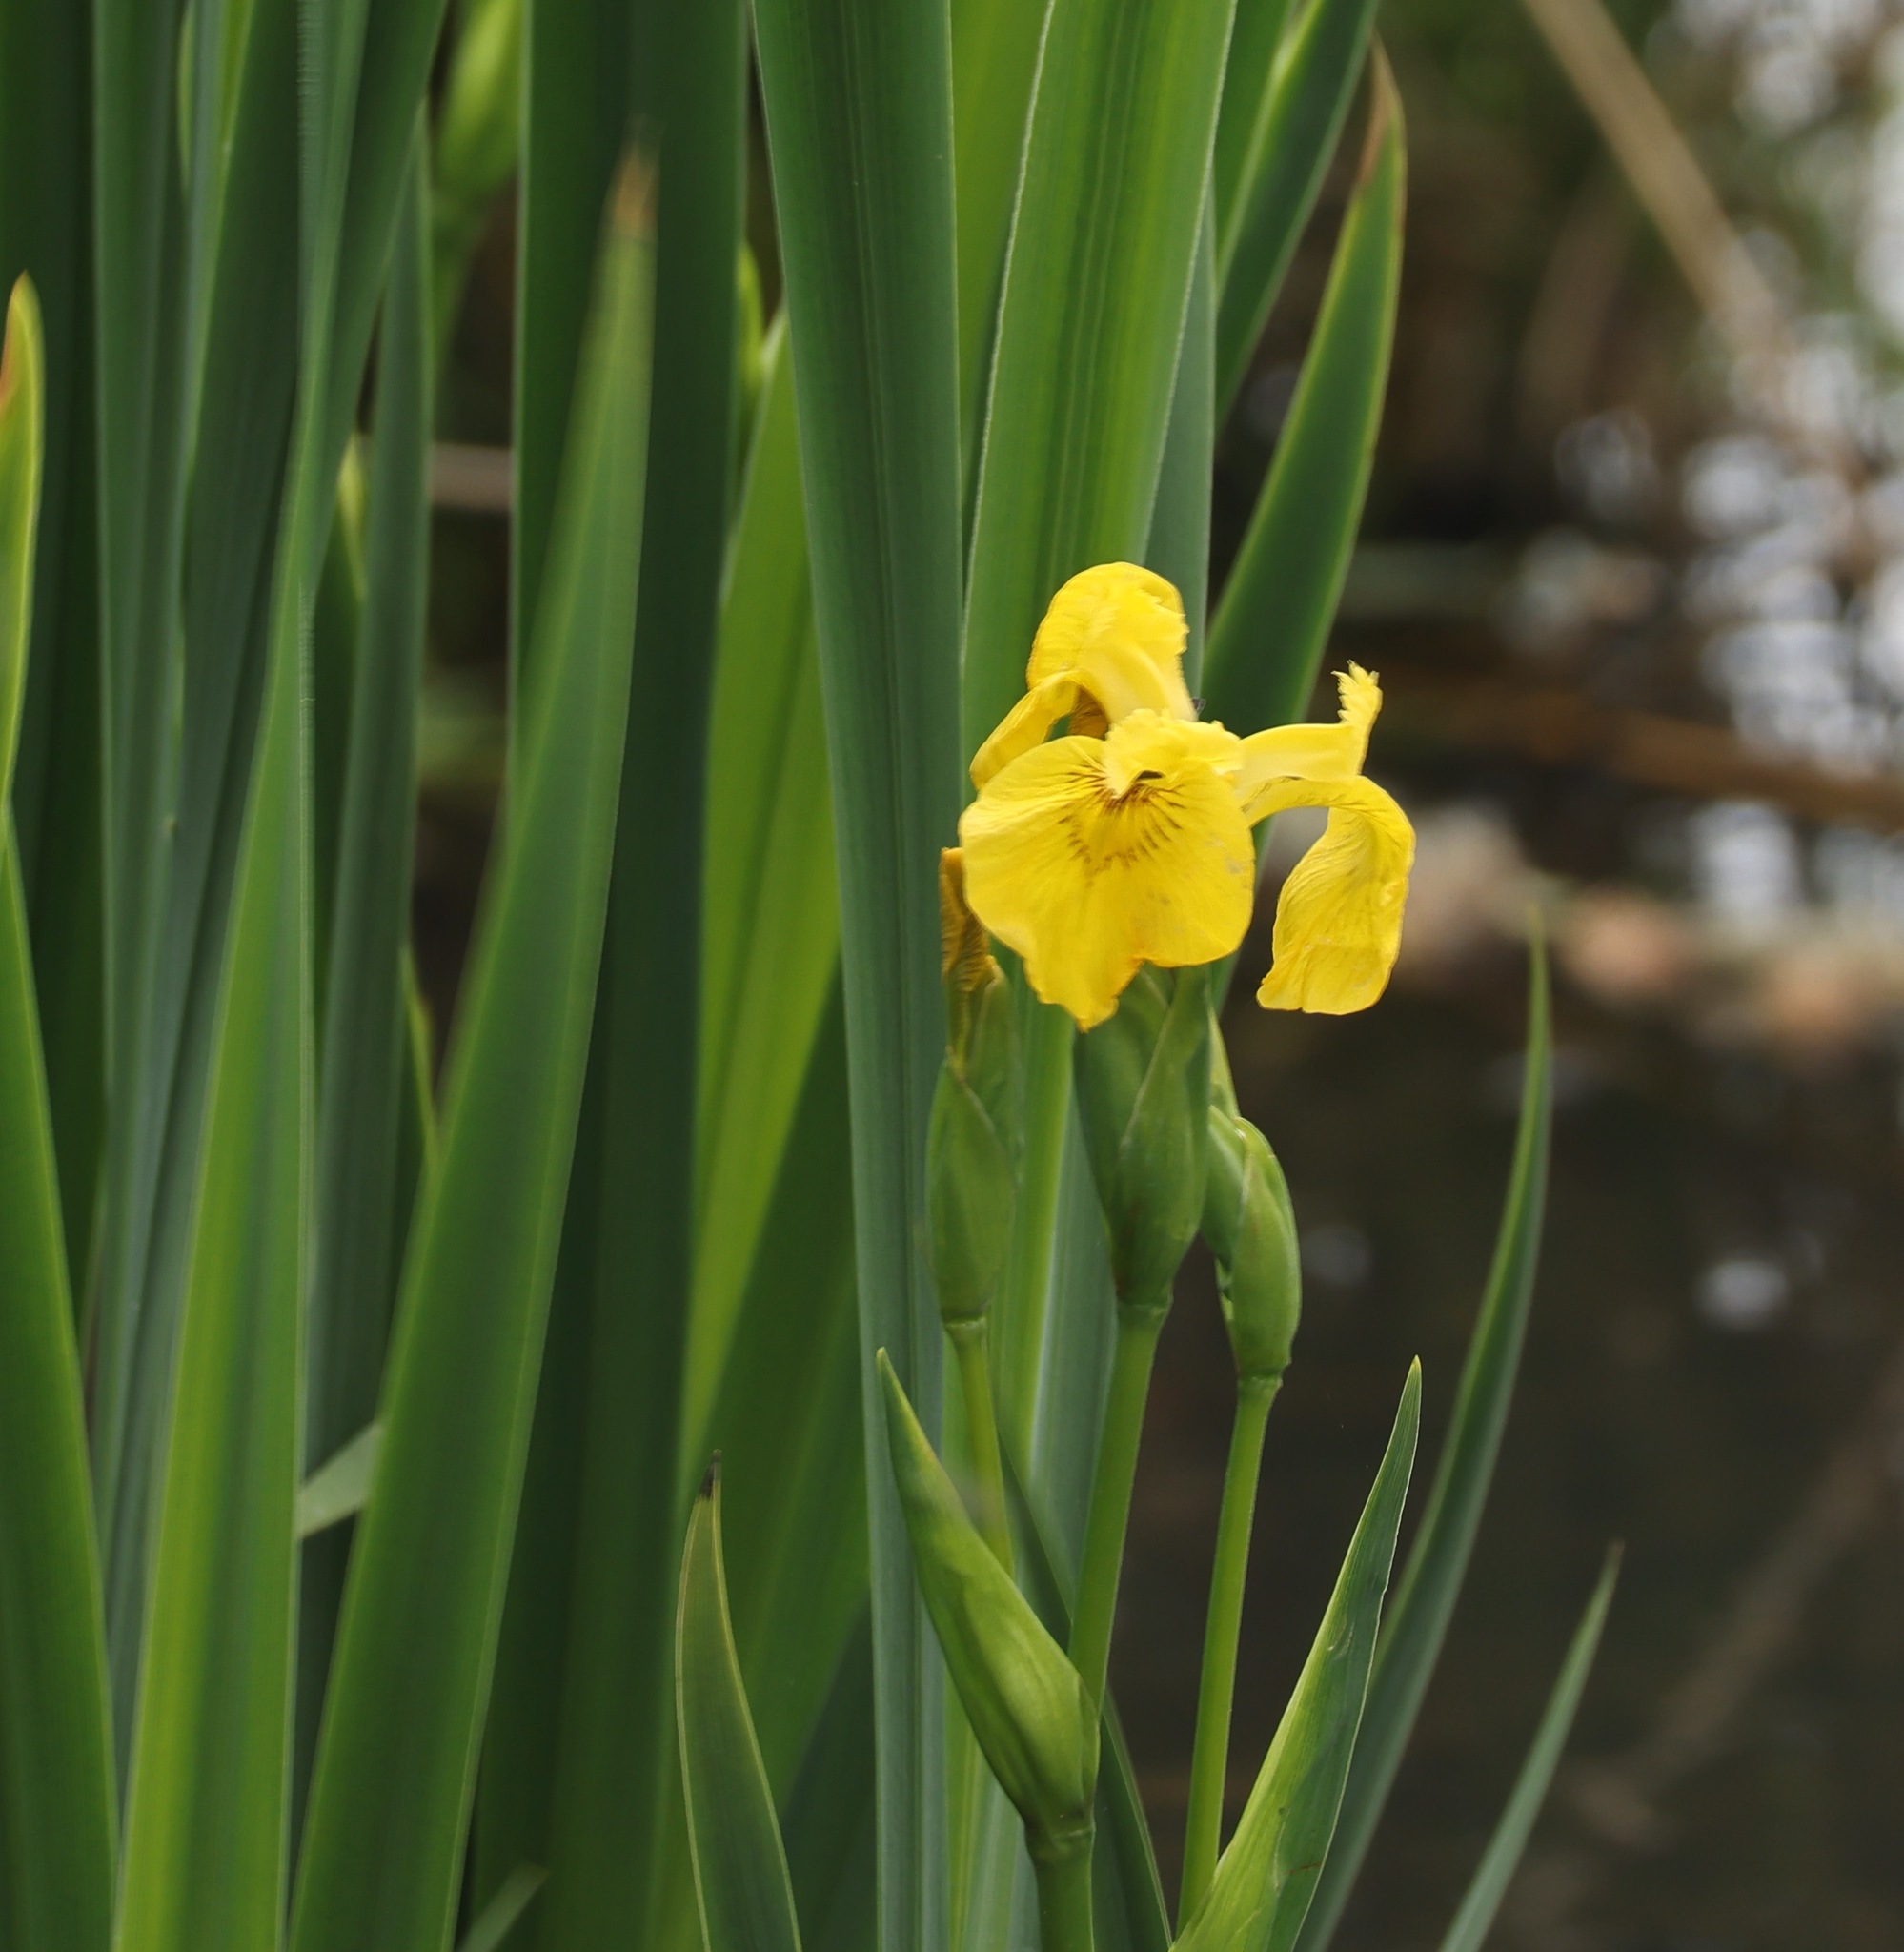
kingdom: Plantae
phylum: Tracheophyta
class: Liliopsida
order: Asparagales
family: Iridaceae
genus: Iris
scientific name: Iris pseudacorus
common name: Yellow flag
